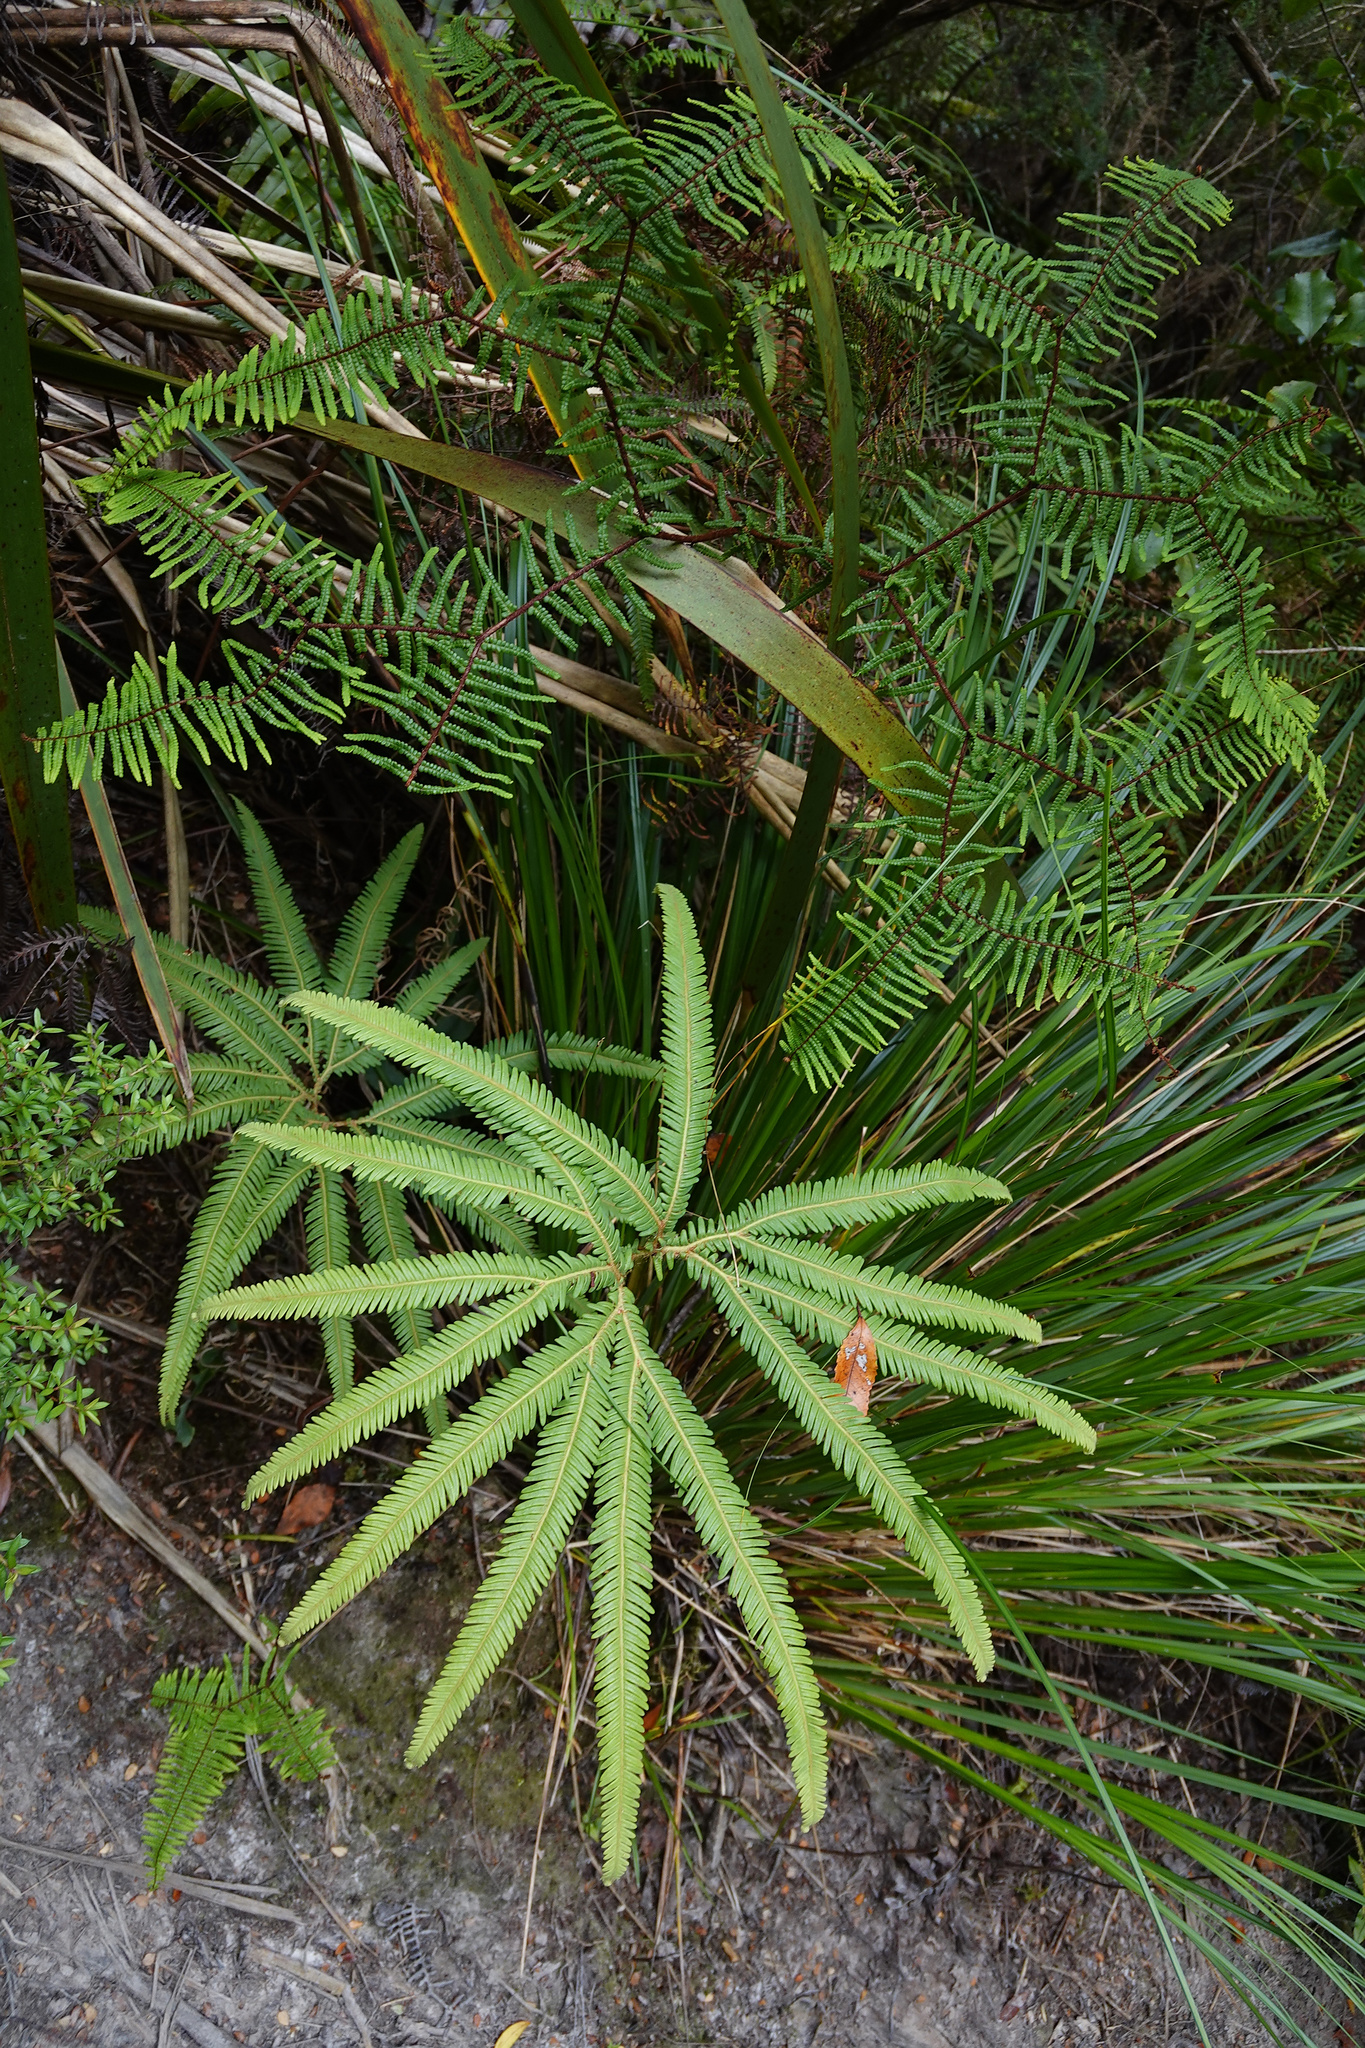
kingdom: Plantae
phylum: Tracheophyta
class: Polypodiopsida
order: Gleicheniales
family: Gleicheniaceae
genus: Sticherus
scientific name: Sticherus cunninghamii
